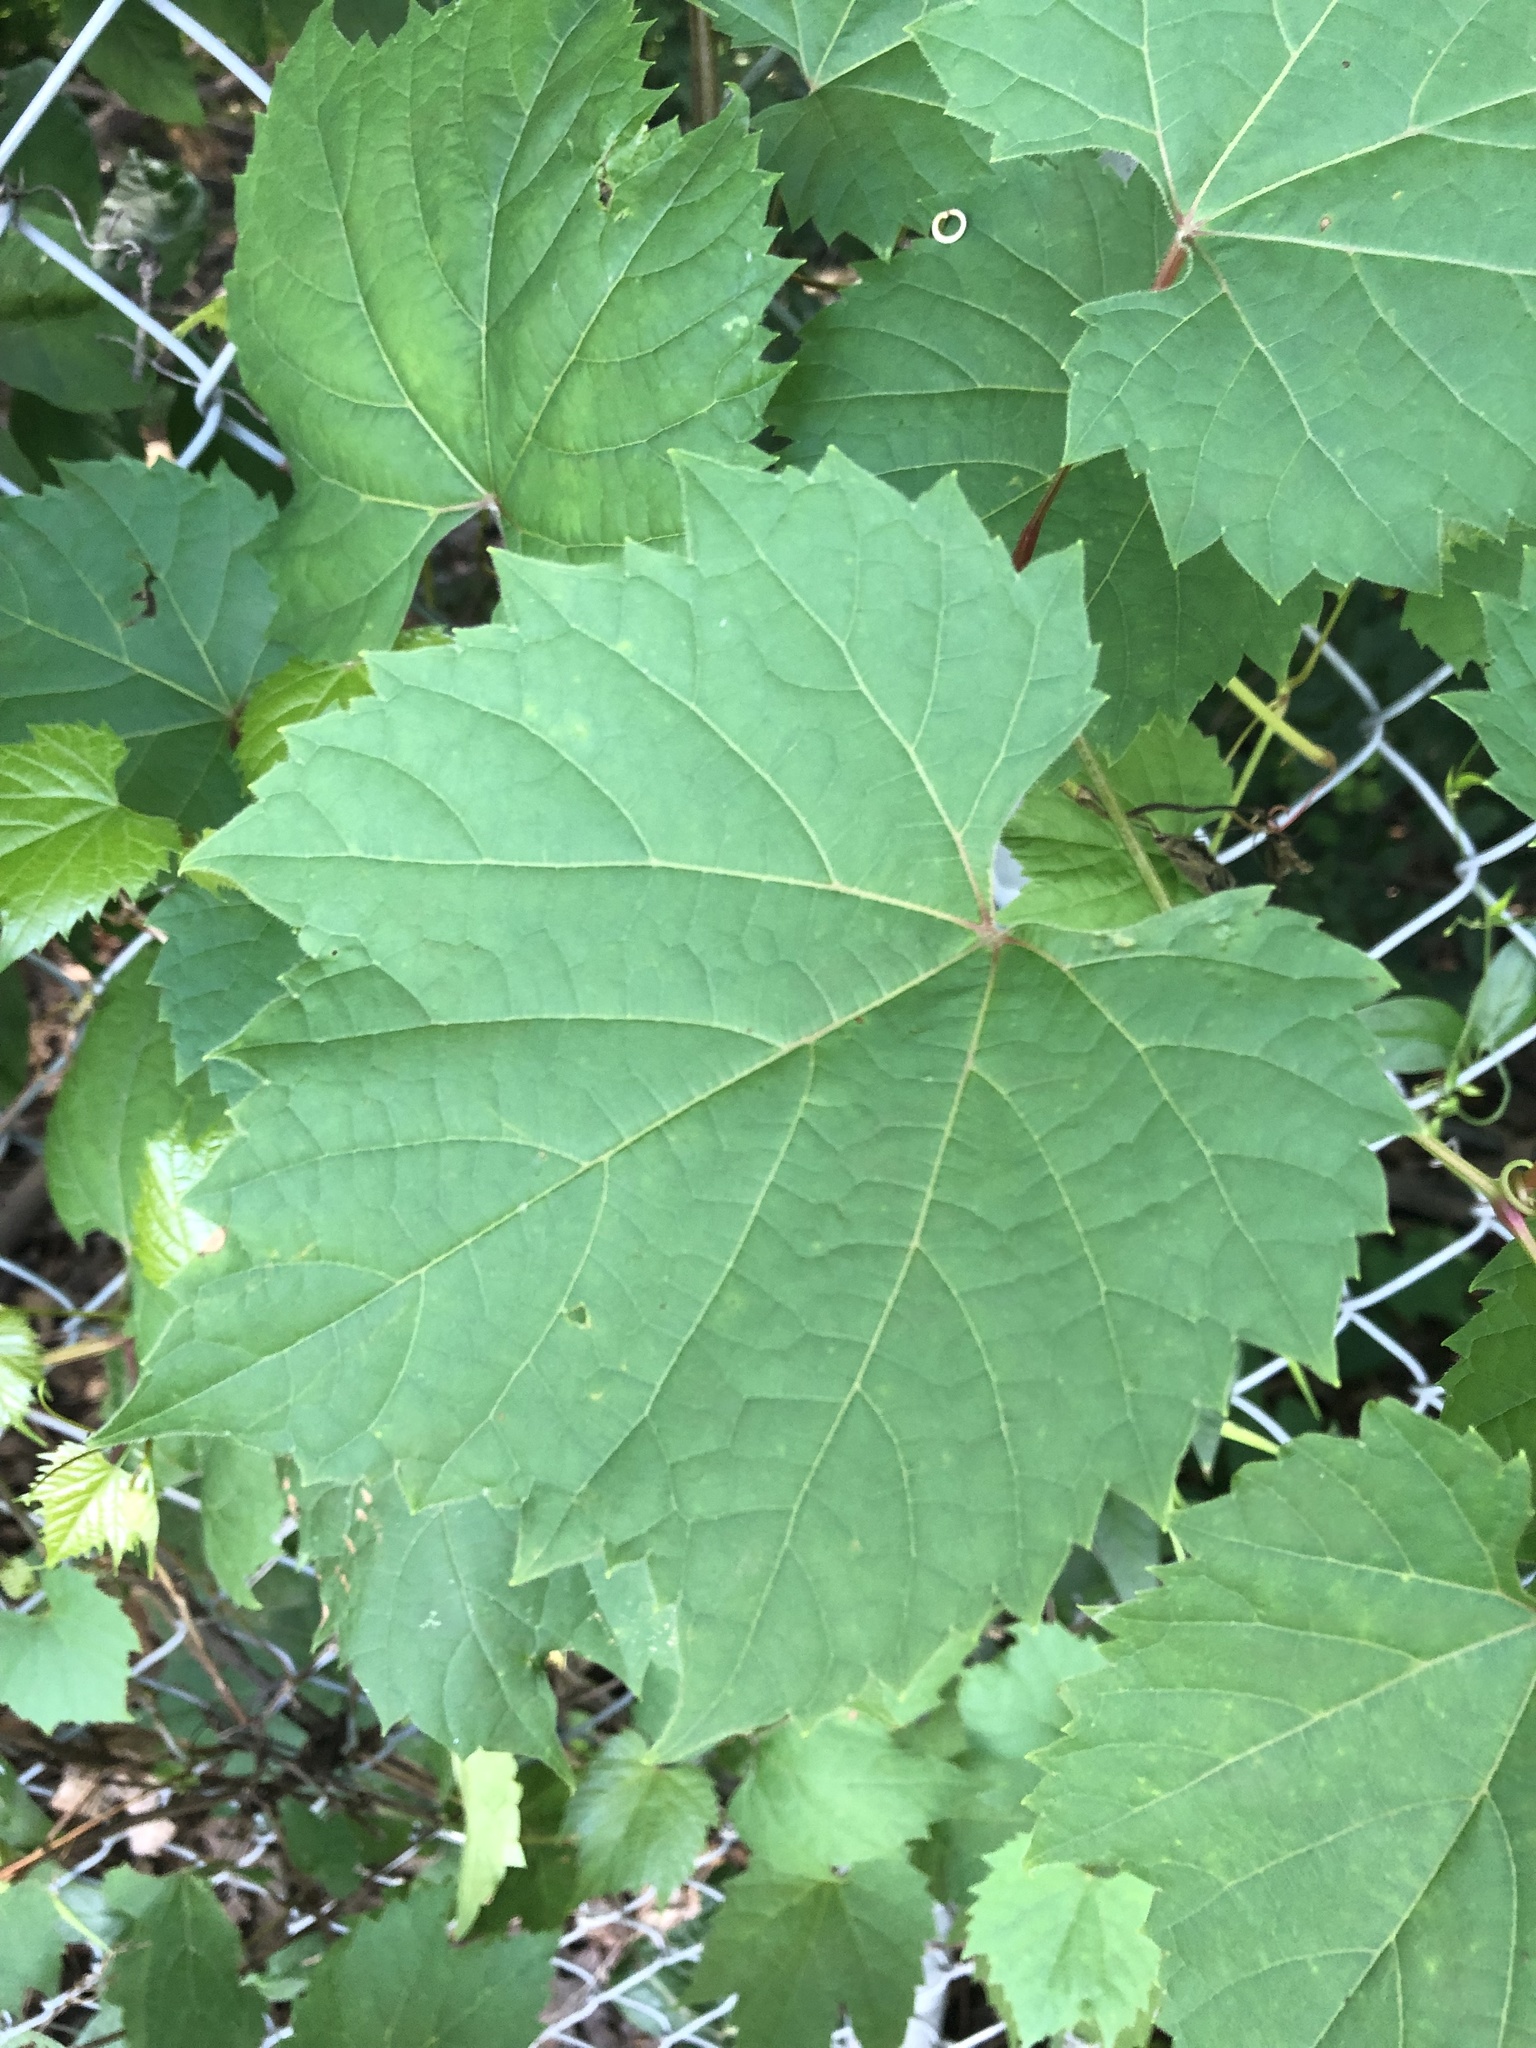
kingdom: Plantae
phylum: Tracheophyta
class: Magnoliopsida
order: Vitales
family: Vitaceae
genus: Vitis
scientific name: Vitis riparia
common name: Frost grape
